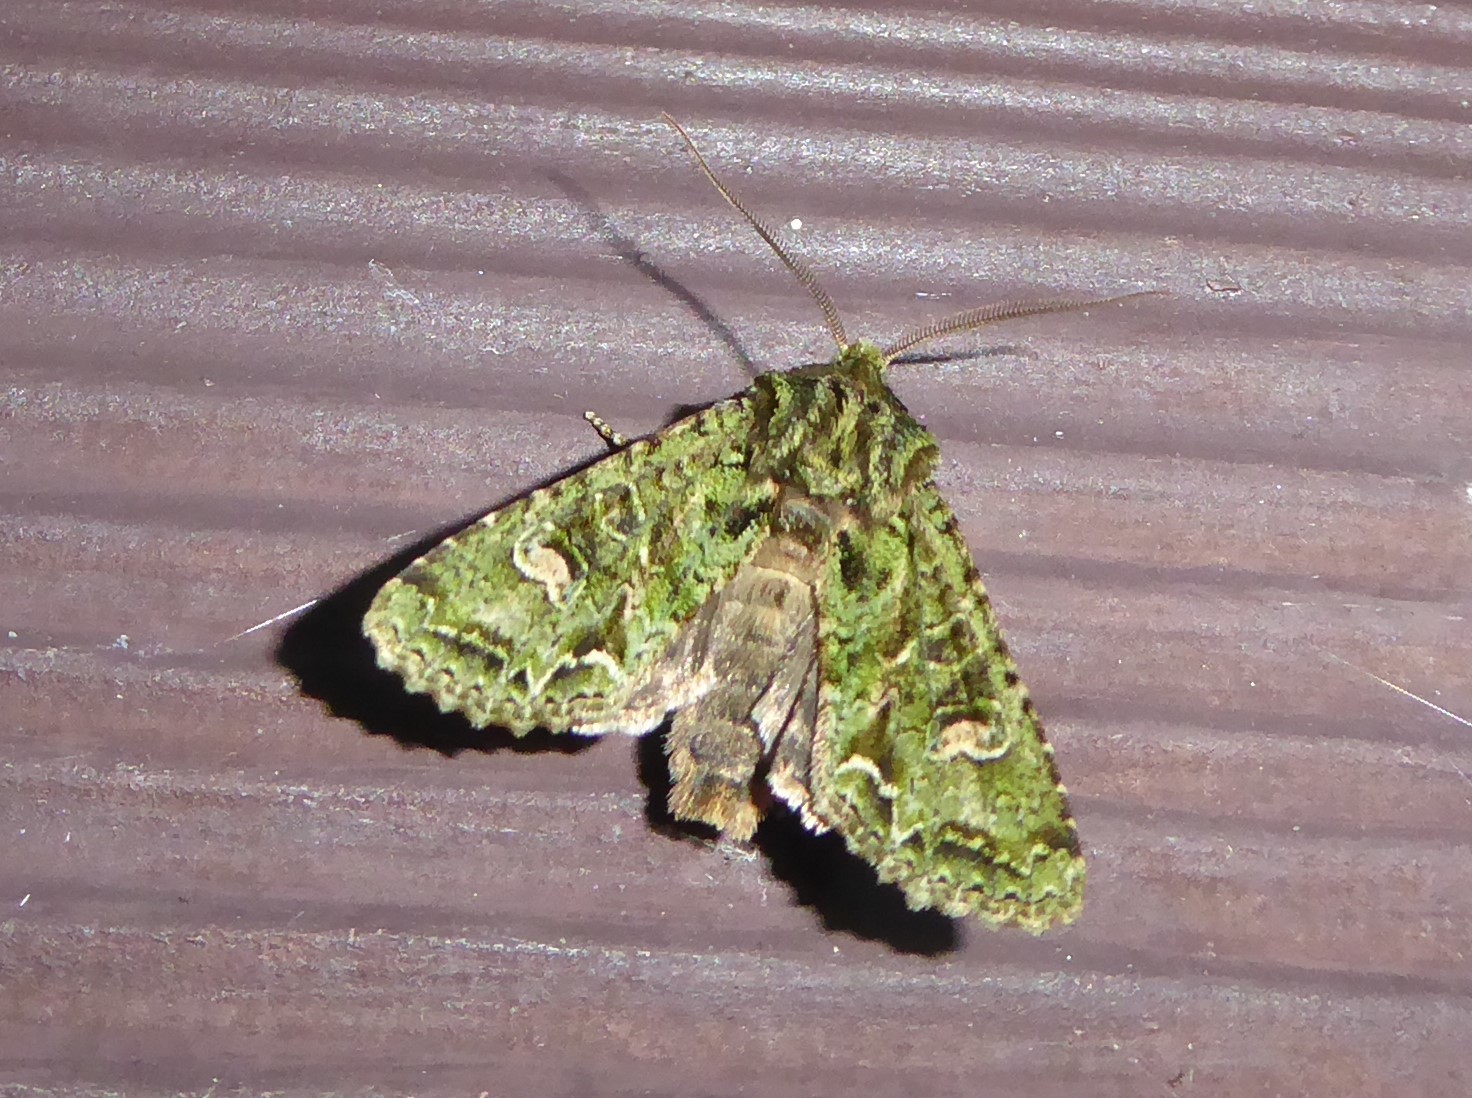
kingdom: Animalia
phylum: Arthropoda
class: Insecta
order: Lepidoptera
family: Noctuidae
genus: Ichneutica
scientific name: Ichneutica
